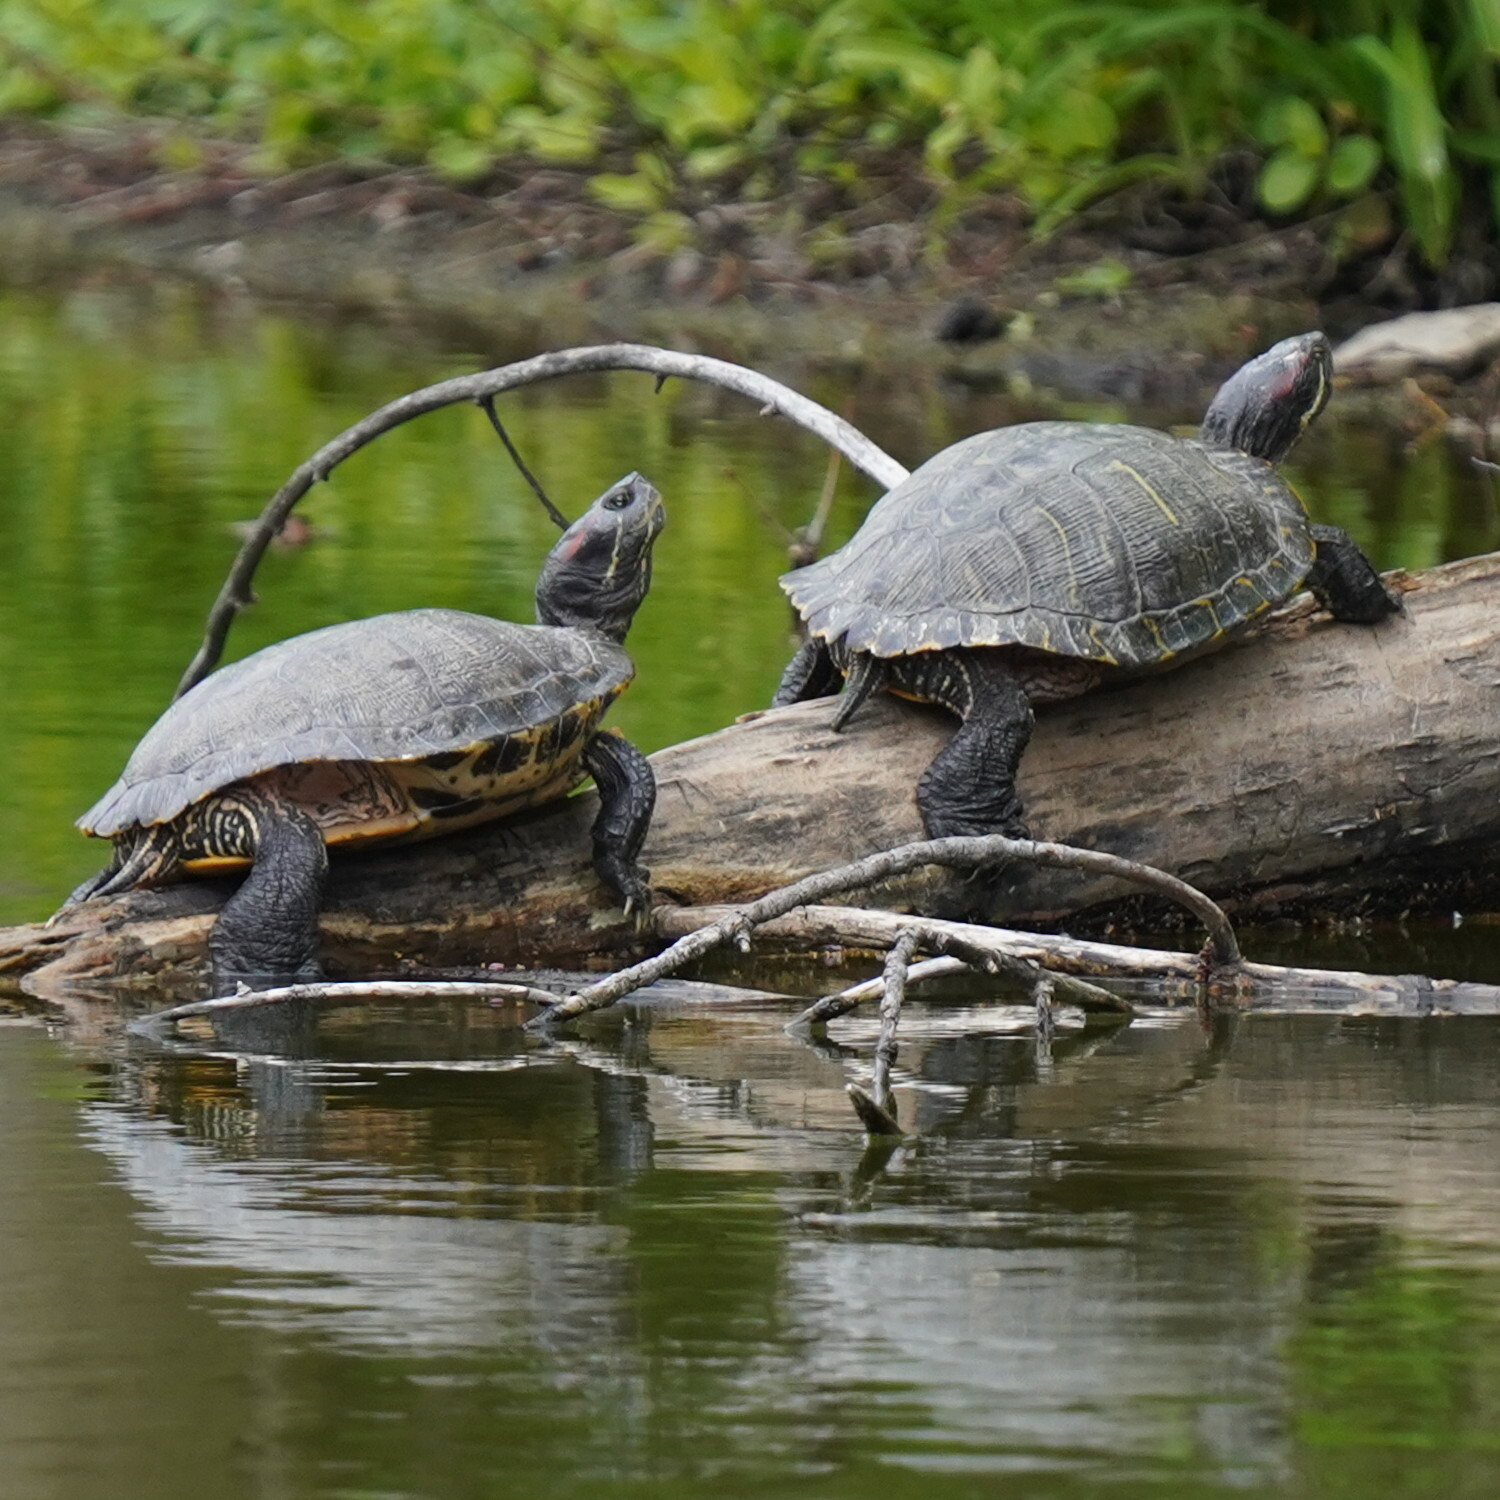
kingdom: Animalia
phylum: Chordata
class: Testudines
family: Emydidae
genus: Trachemys
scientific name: Trachemys scripta
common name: Slider
